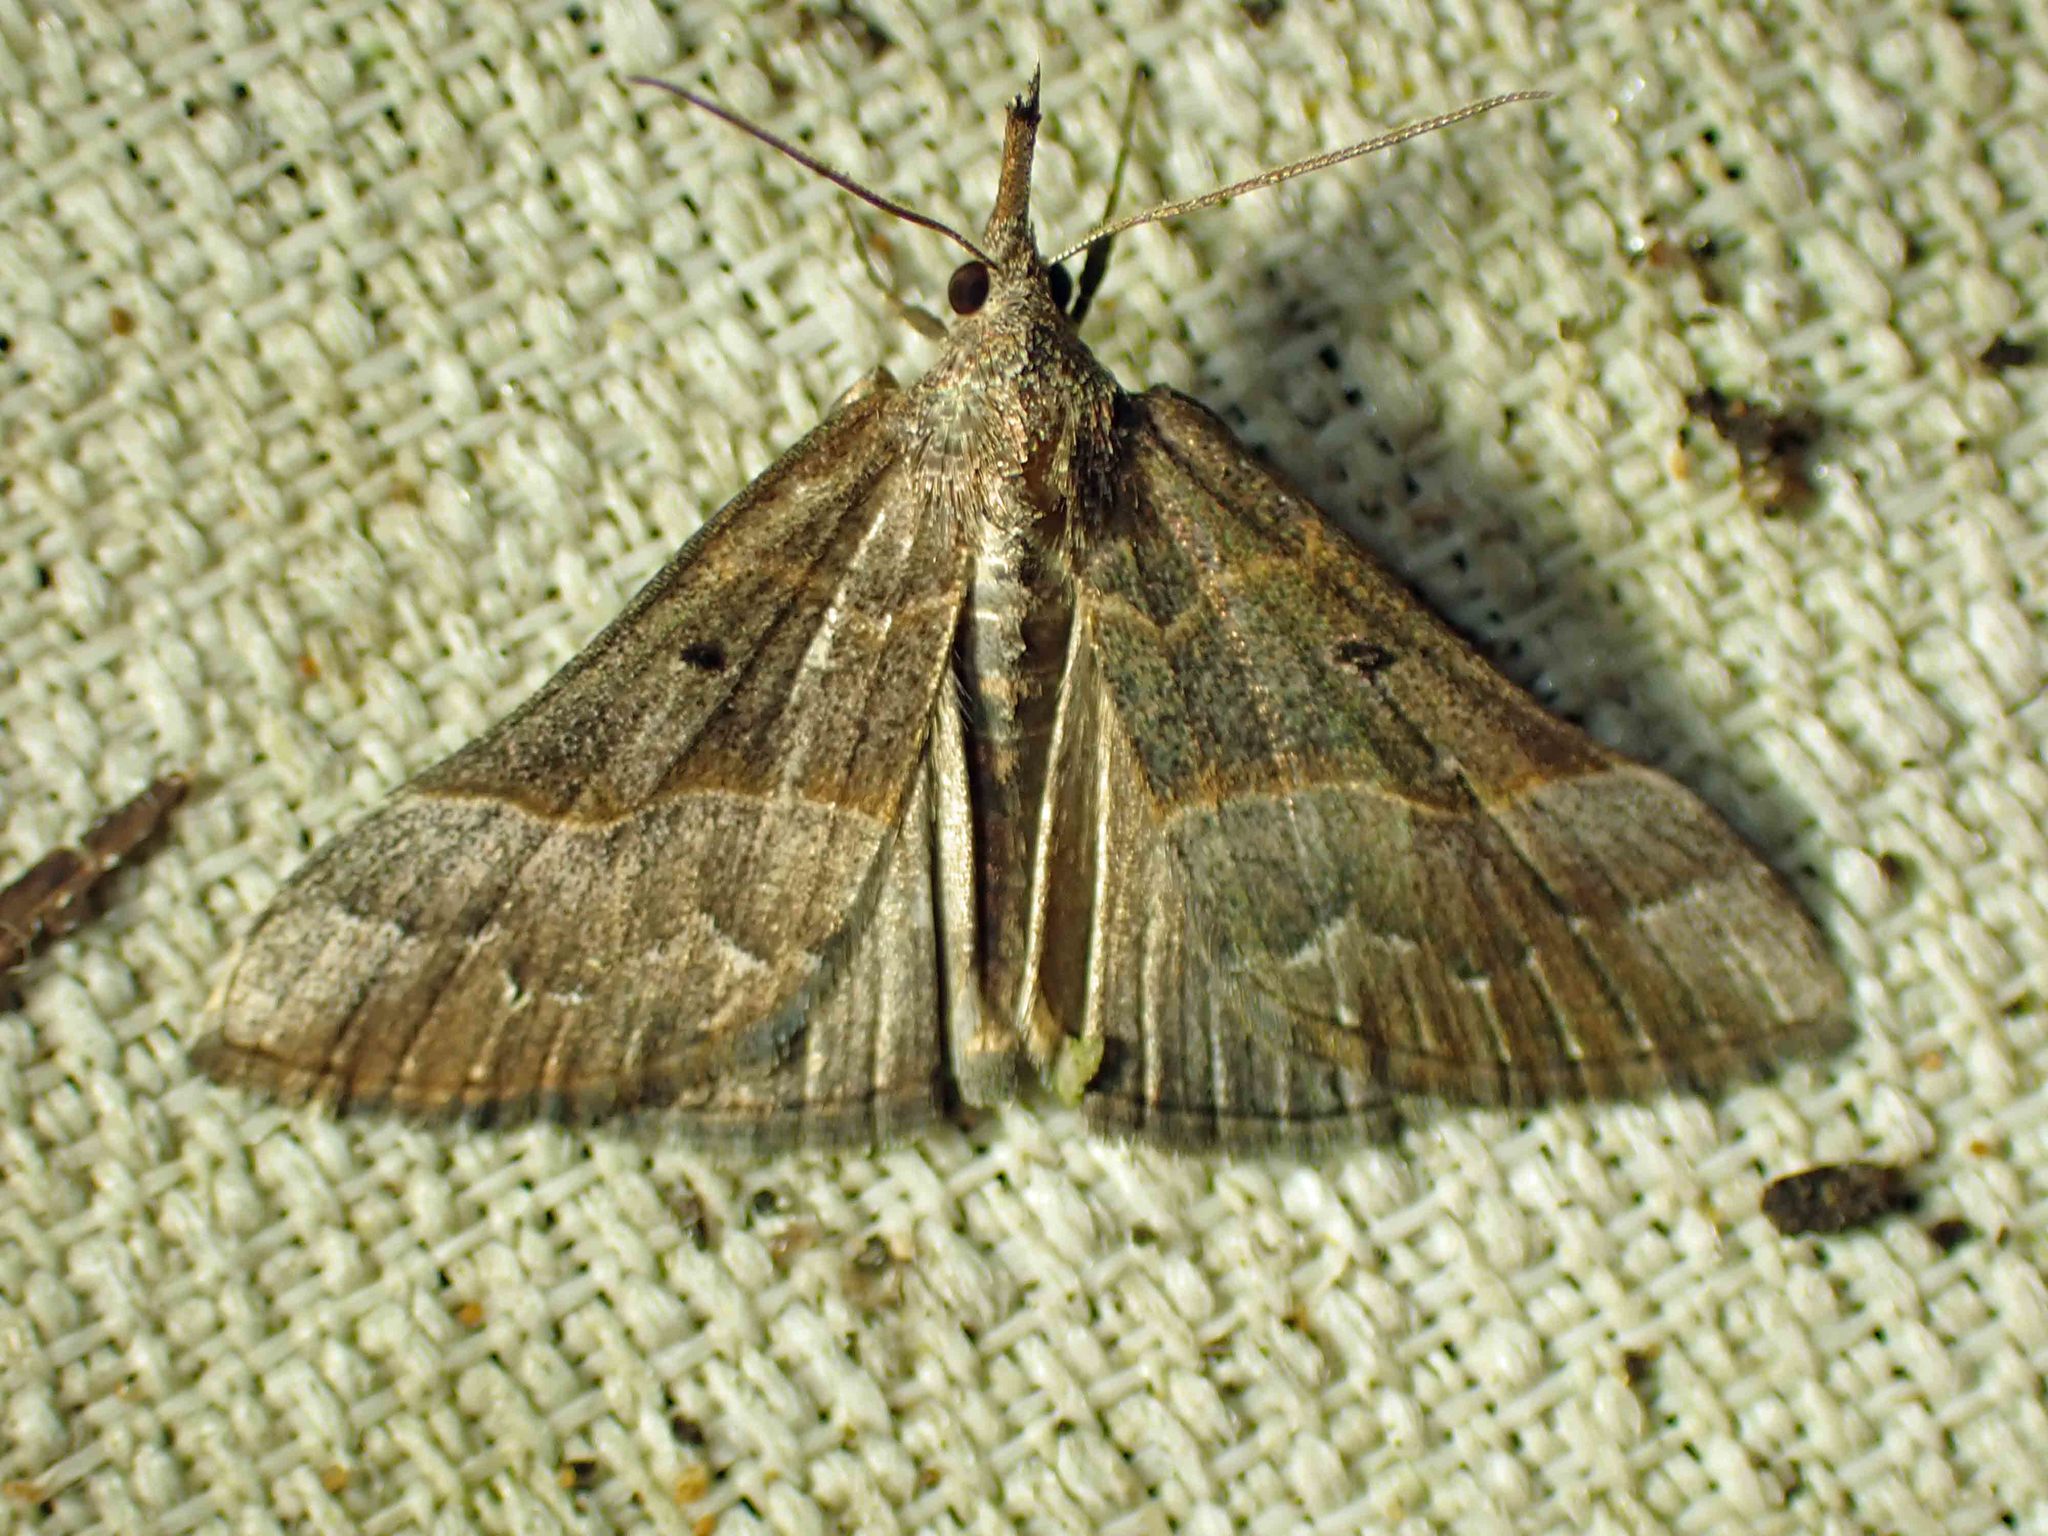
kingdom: Animalia
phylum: Arthropoda
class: Insecta
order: Lepidoptera
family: Erebidae
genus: Hypena
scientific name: Hypena eductalis
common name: Red-footed snout
